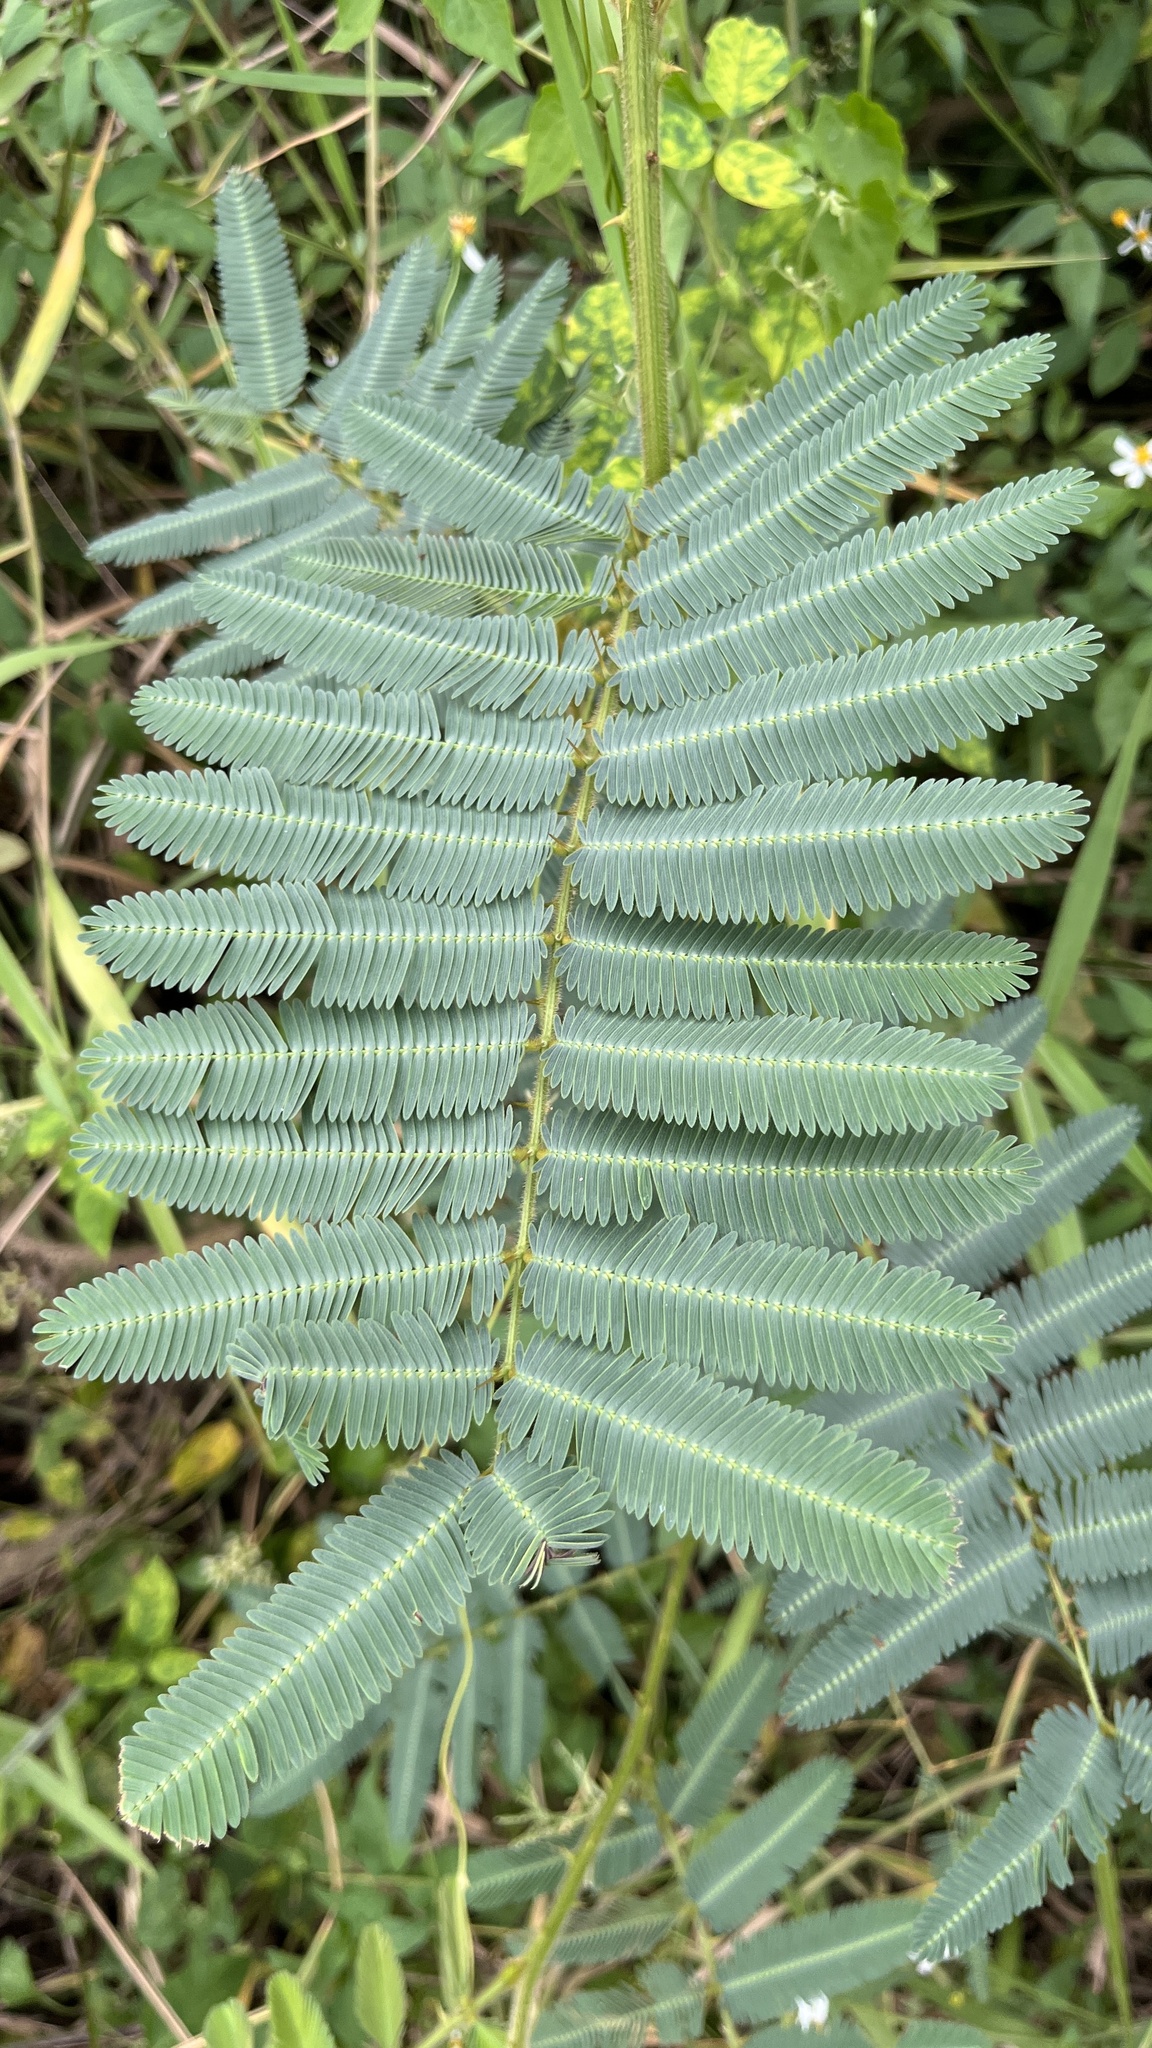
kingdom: Plantae
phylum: Tracheophyta
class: Magnoliopsida
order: Fabales
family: Fabaceae
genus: Mimosa
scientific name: Mimosa pigra
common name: Black mimosa
